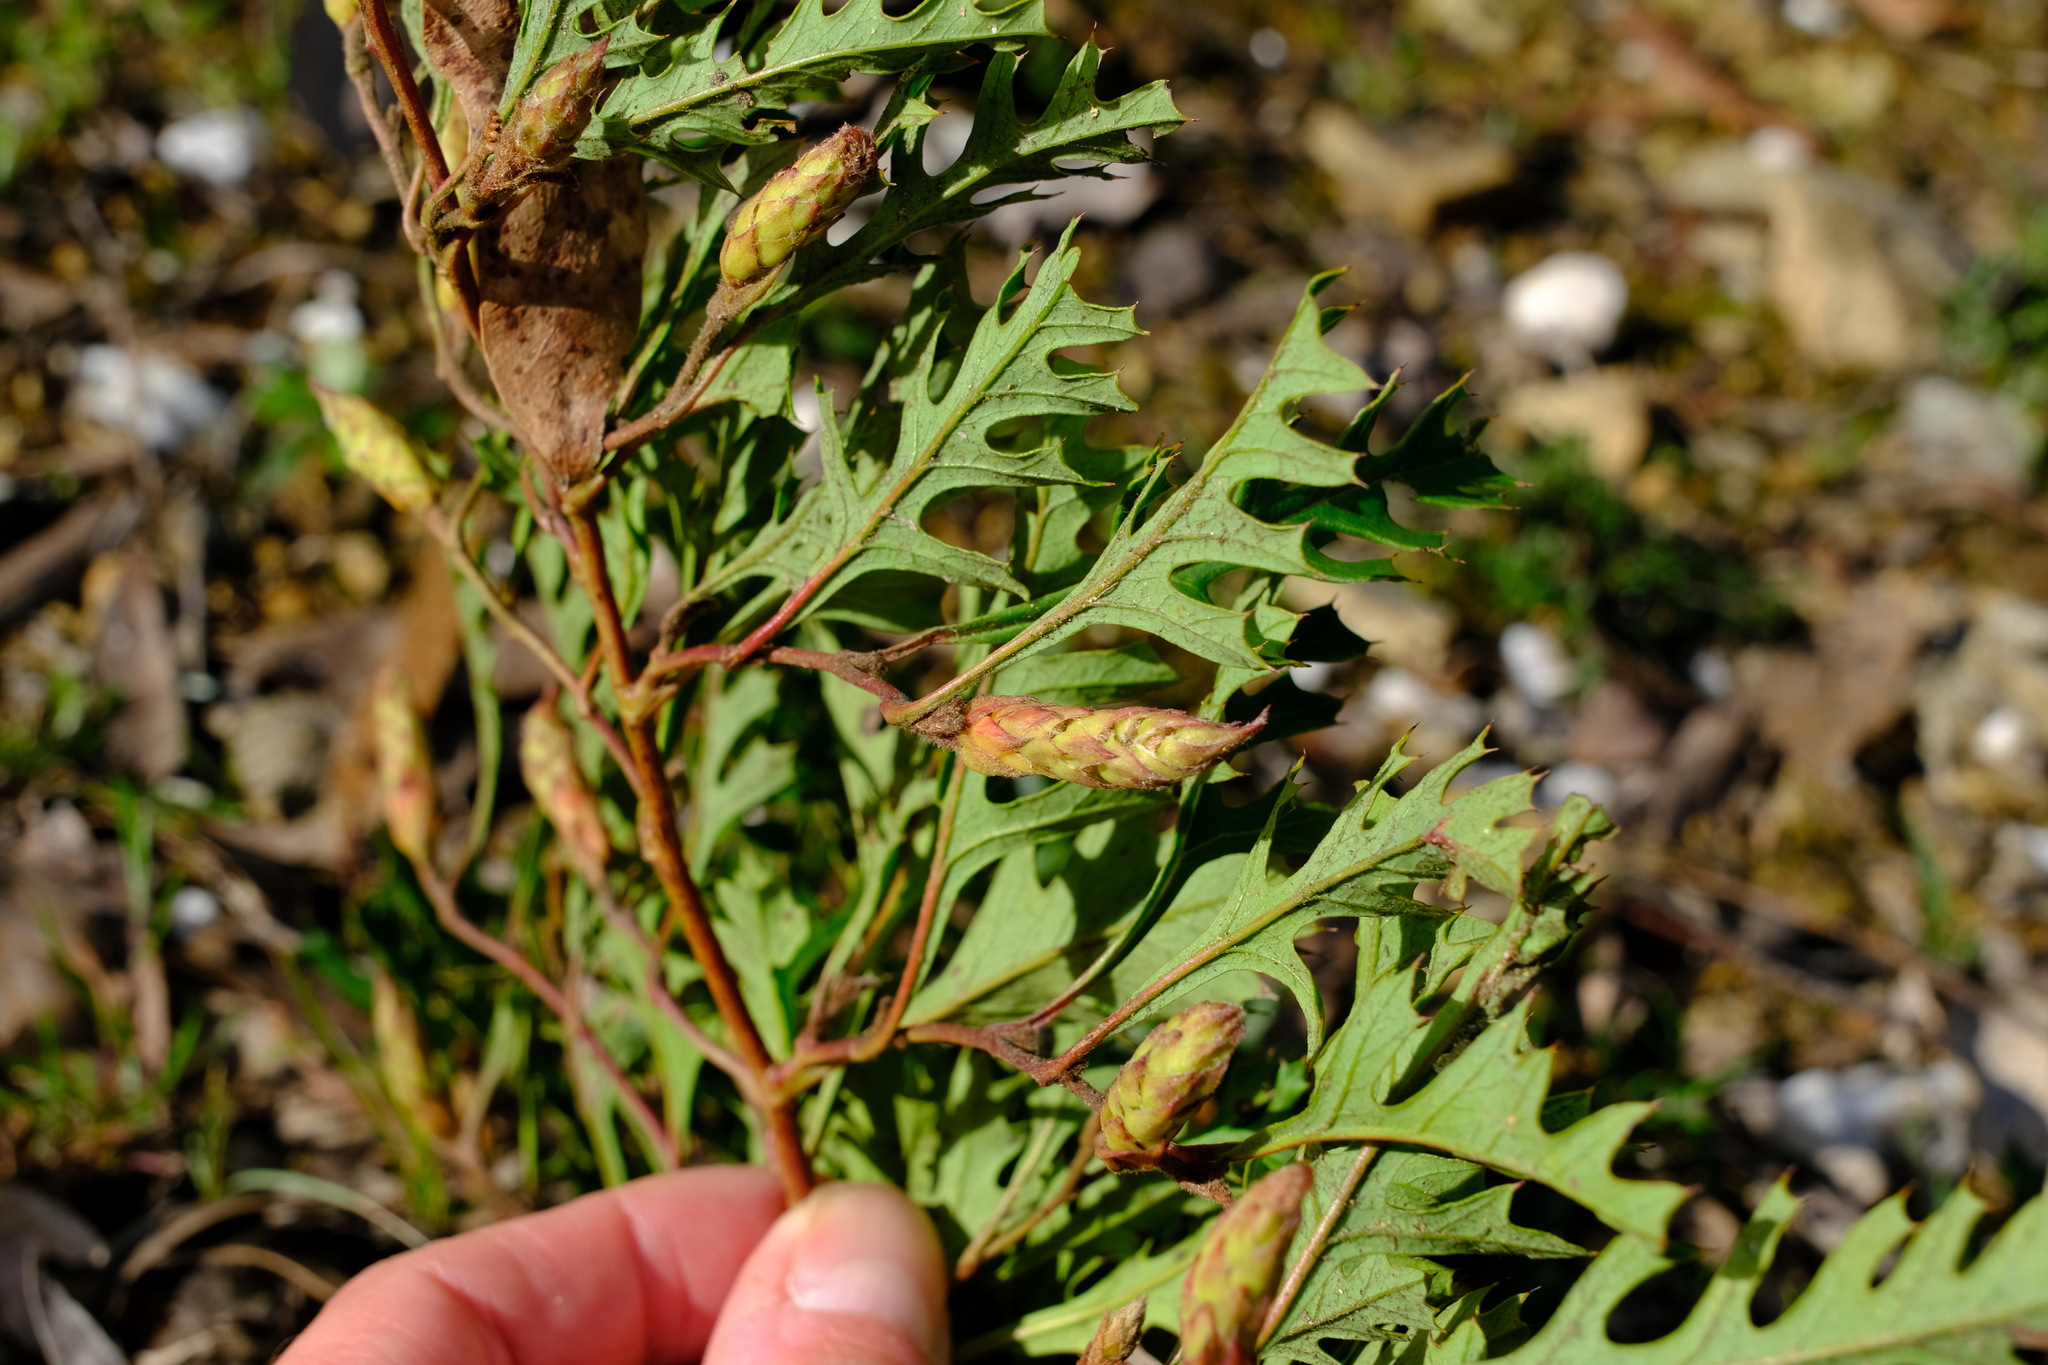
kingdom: Plantae
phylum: Tracheophyta
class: Magnoliopsida
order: Proteales
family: Proteaceae
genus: Grevillea
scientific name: Grevillea obtecta
